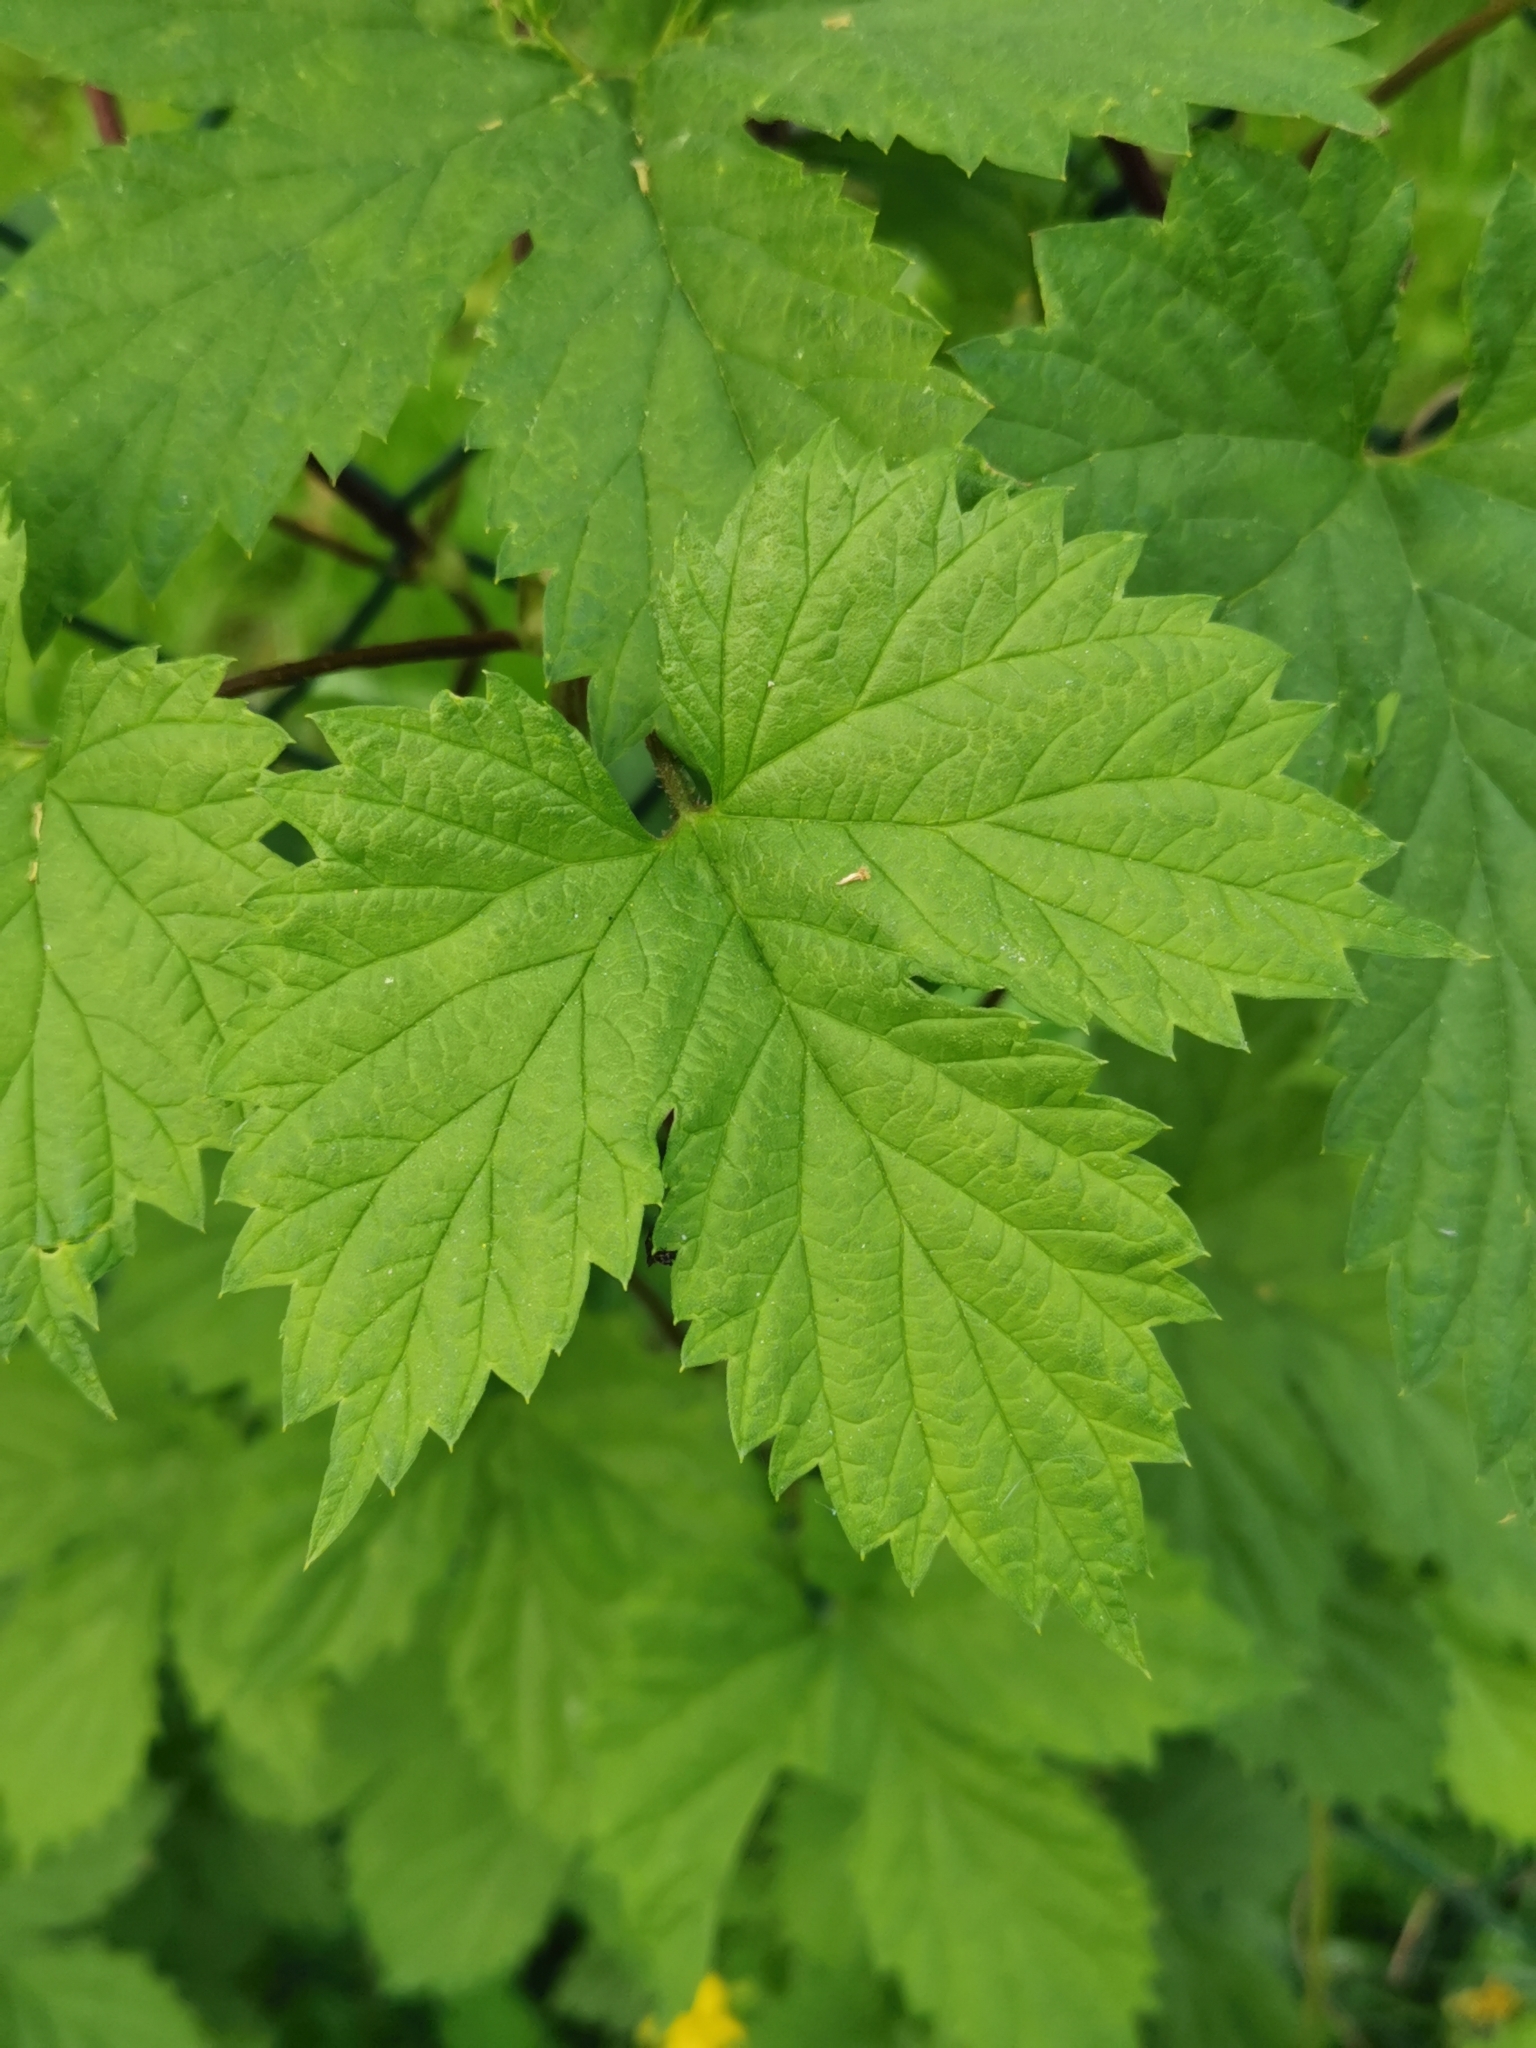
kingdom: Plantae
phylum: Tracheophyta
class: Magnoliopsida
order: Rosales
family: Cannabaceae
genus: Humulus
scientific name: Humulus lupulus
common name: Hop
